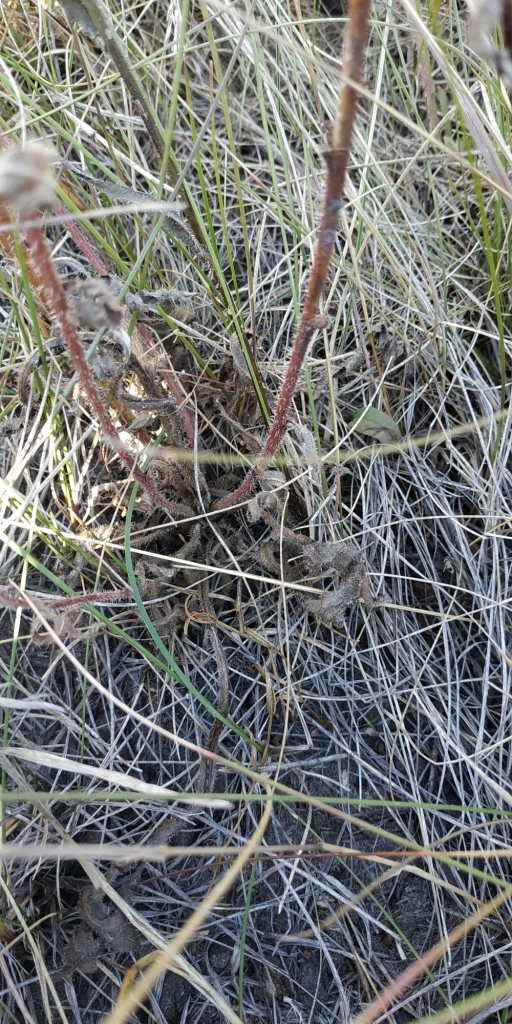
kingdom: Plantae
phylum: Tracheophyta
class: Magnoliopsida
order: Asterales
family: Asteraceae
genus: Picris
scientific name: Picris hieracioides
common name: Hawkweed oxtongue
